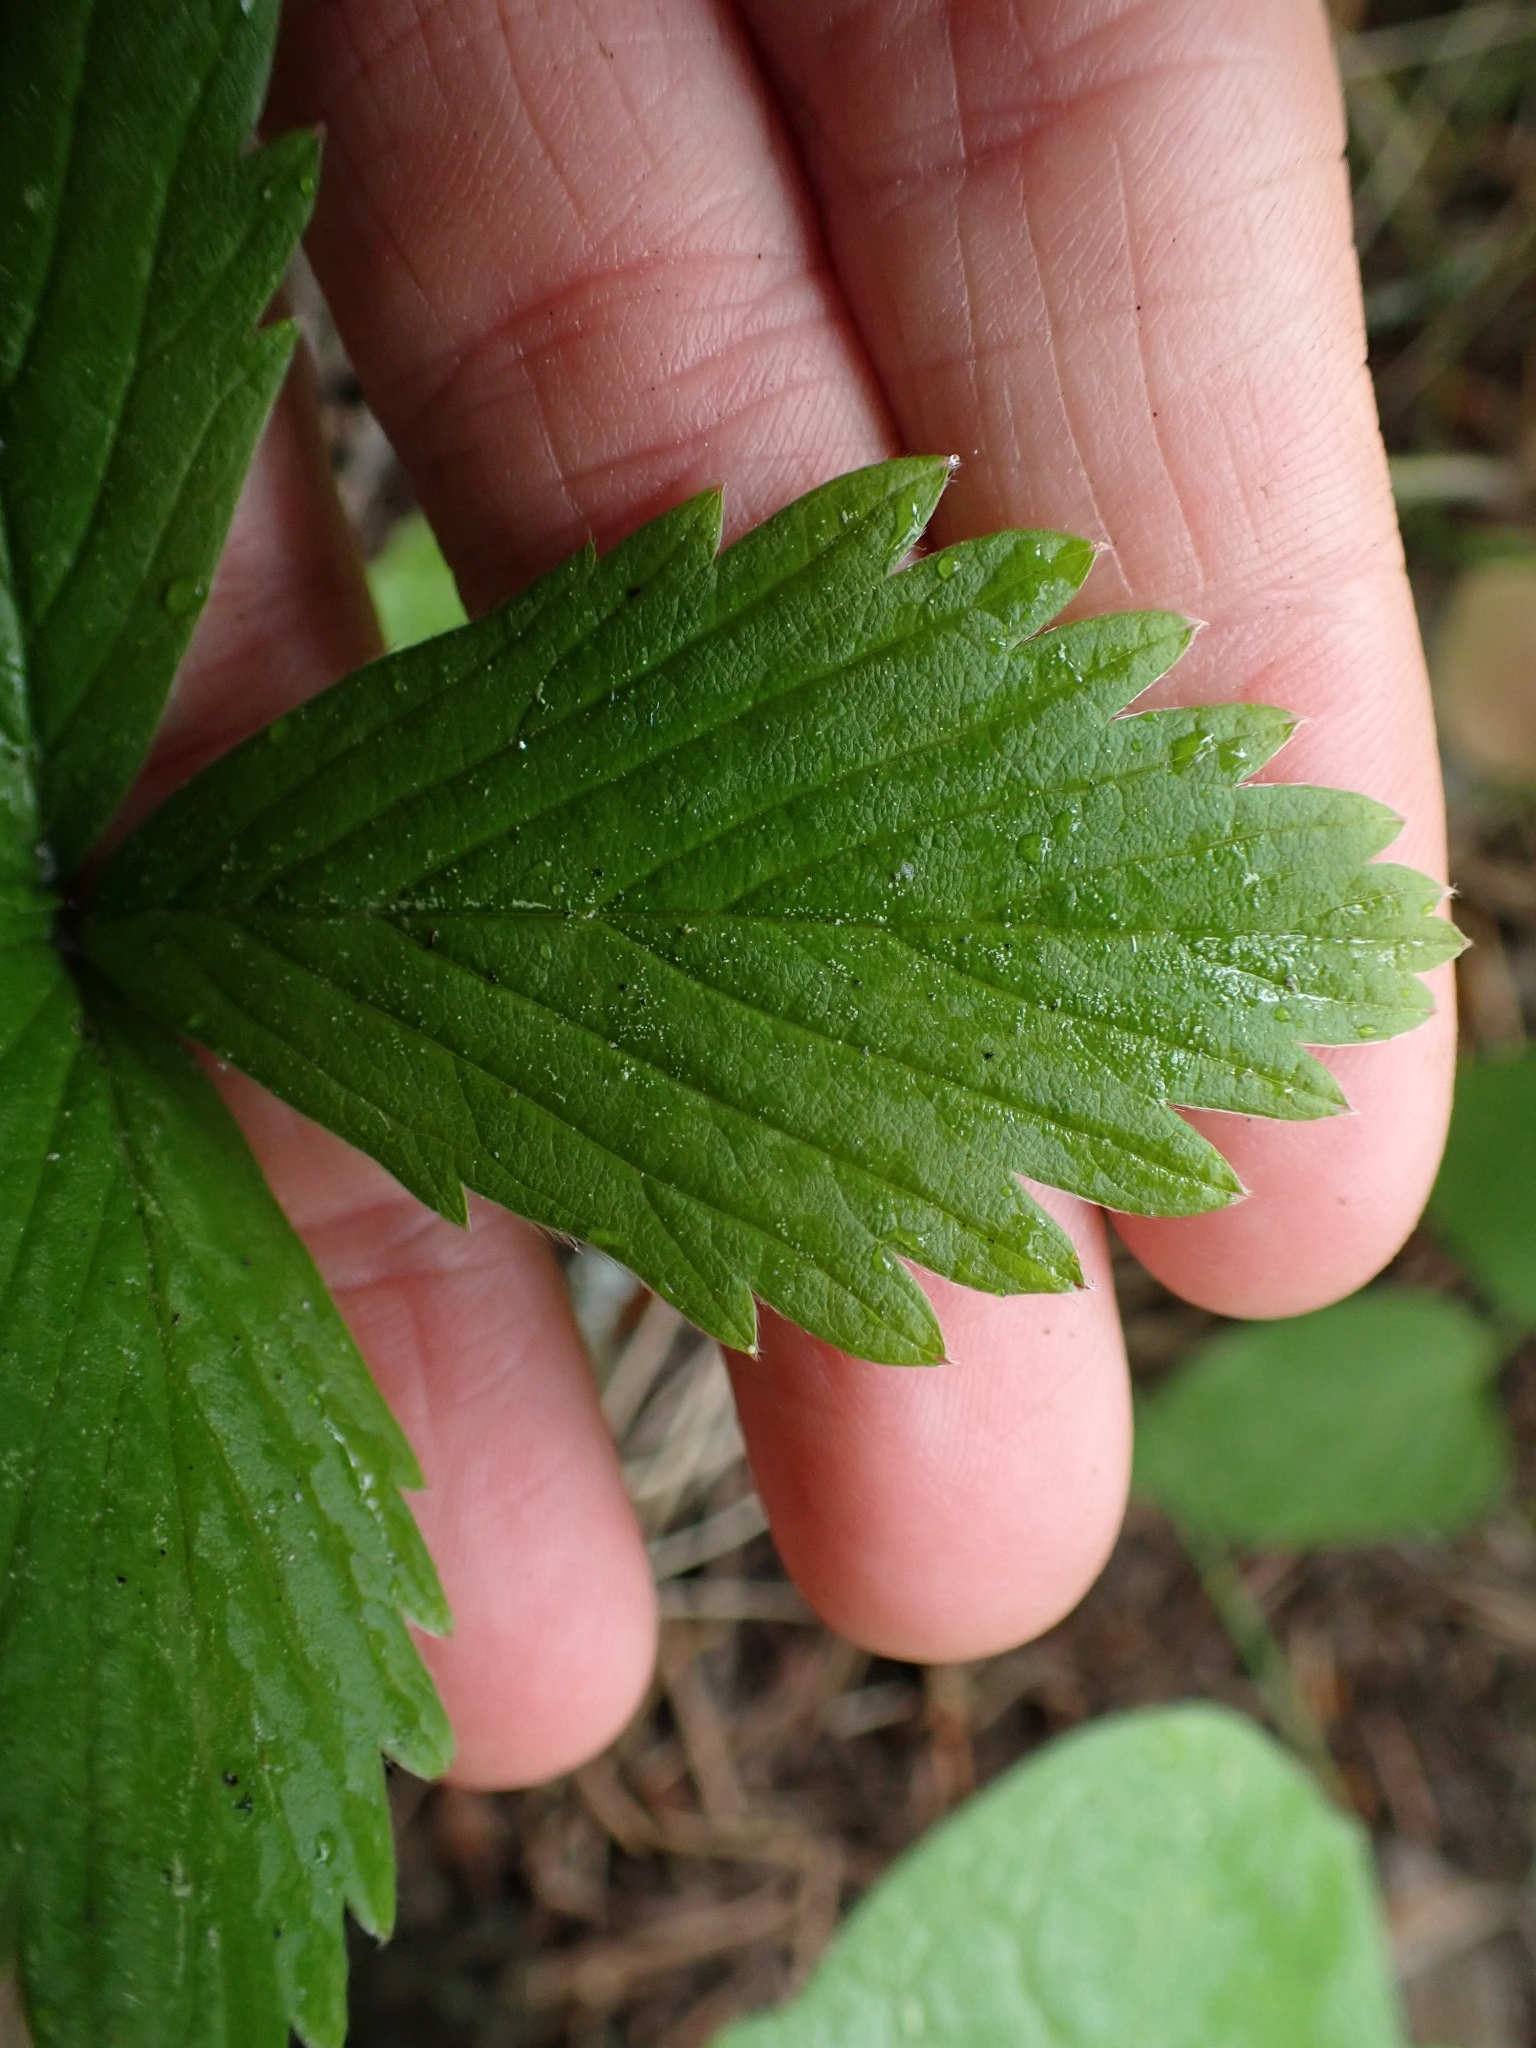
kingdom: Plantae
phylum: Tracheophyta
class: Magnoliopsida
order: Rosales
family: Rosaceae
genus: Fragaria
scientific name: Fragaria vesca
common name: Wild strawberry
